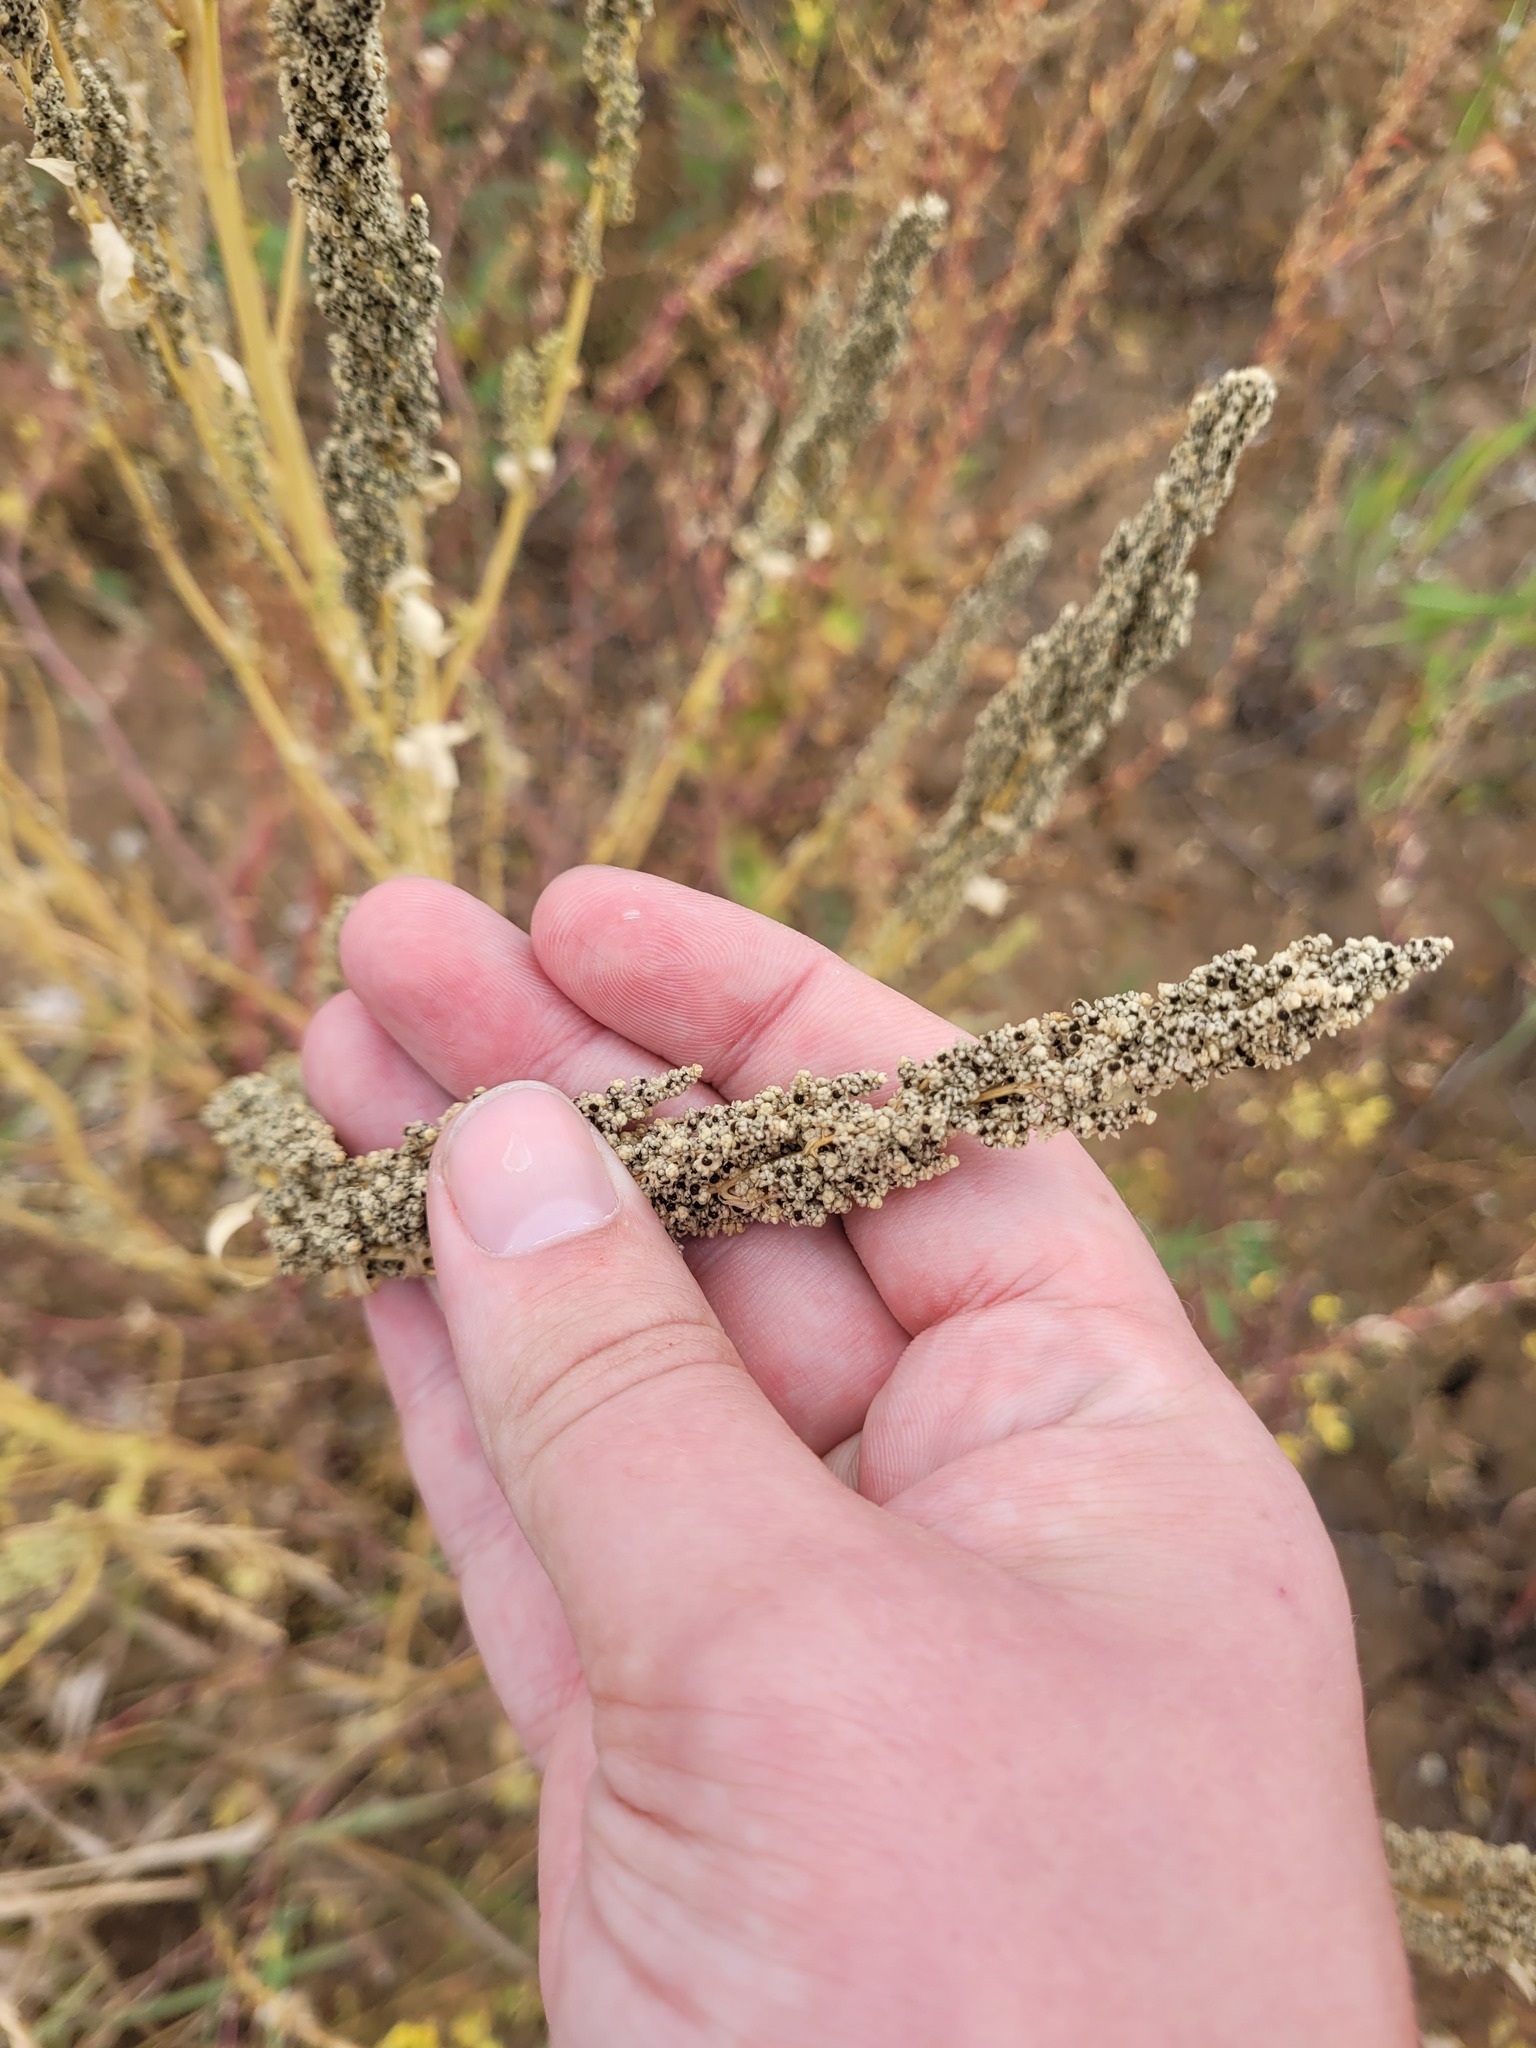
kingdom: Plantae
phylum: Tracheophyta
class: Magnoliopsida
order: Caryophyllales
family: Amaranthaceae
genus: Oxybasis
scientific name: Oxybasis urbica
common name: City goosefoot
